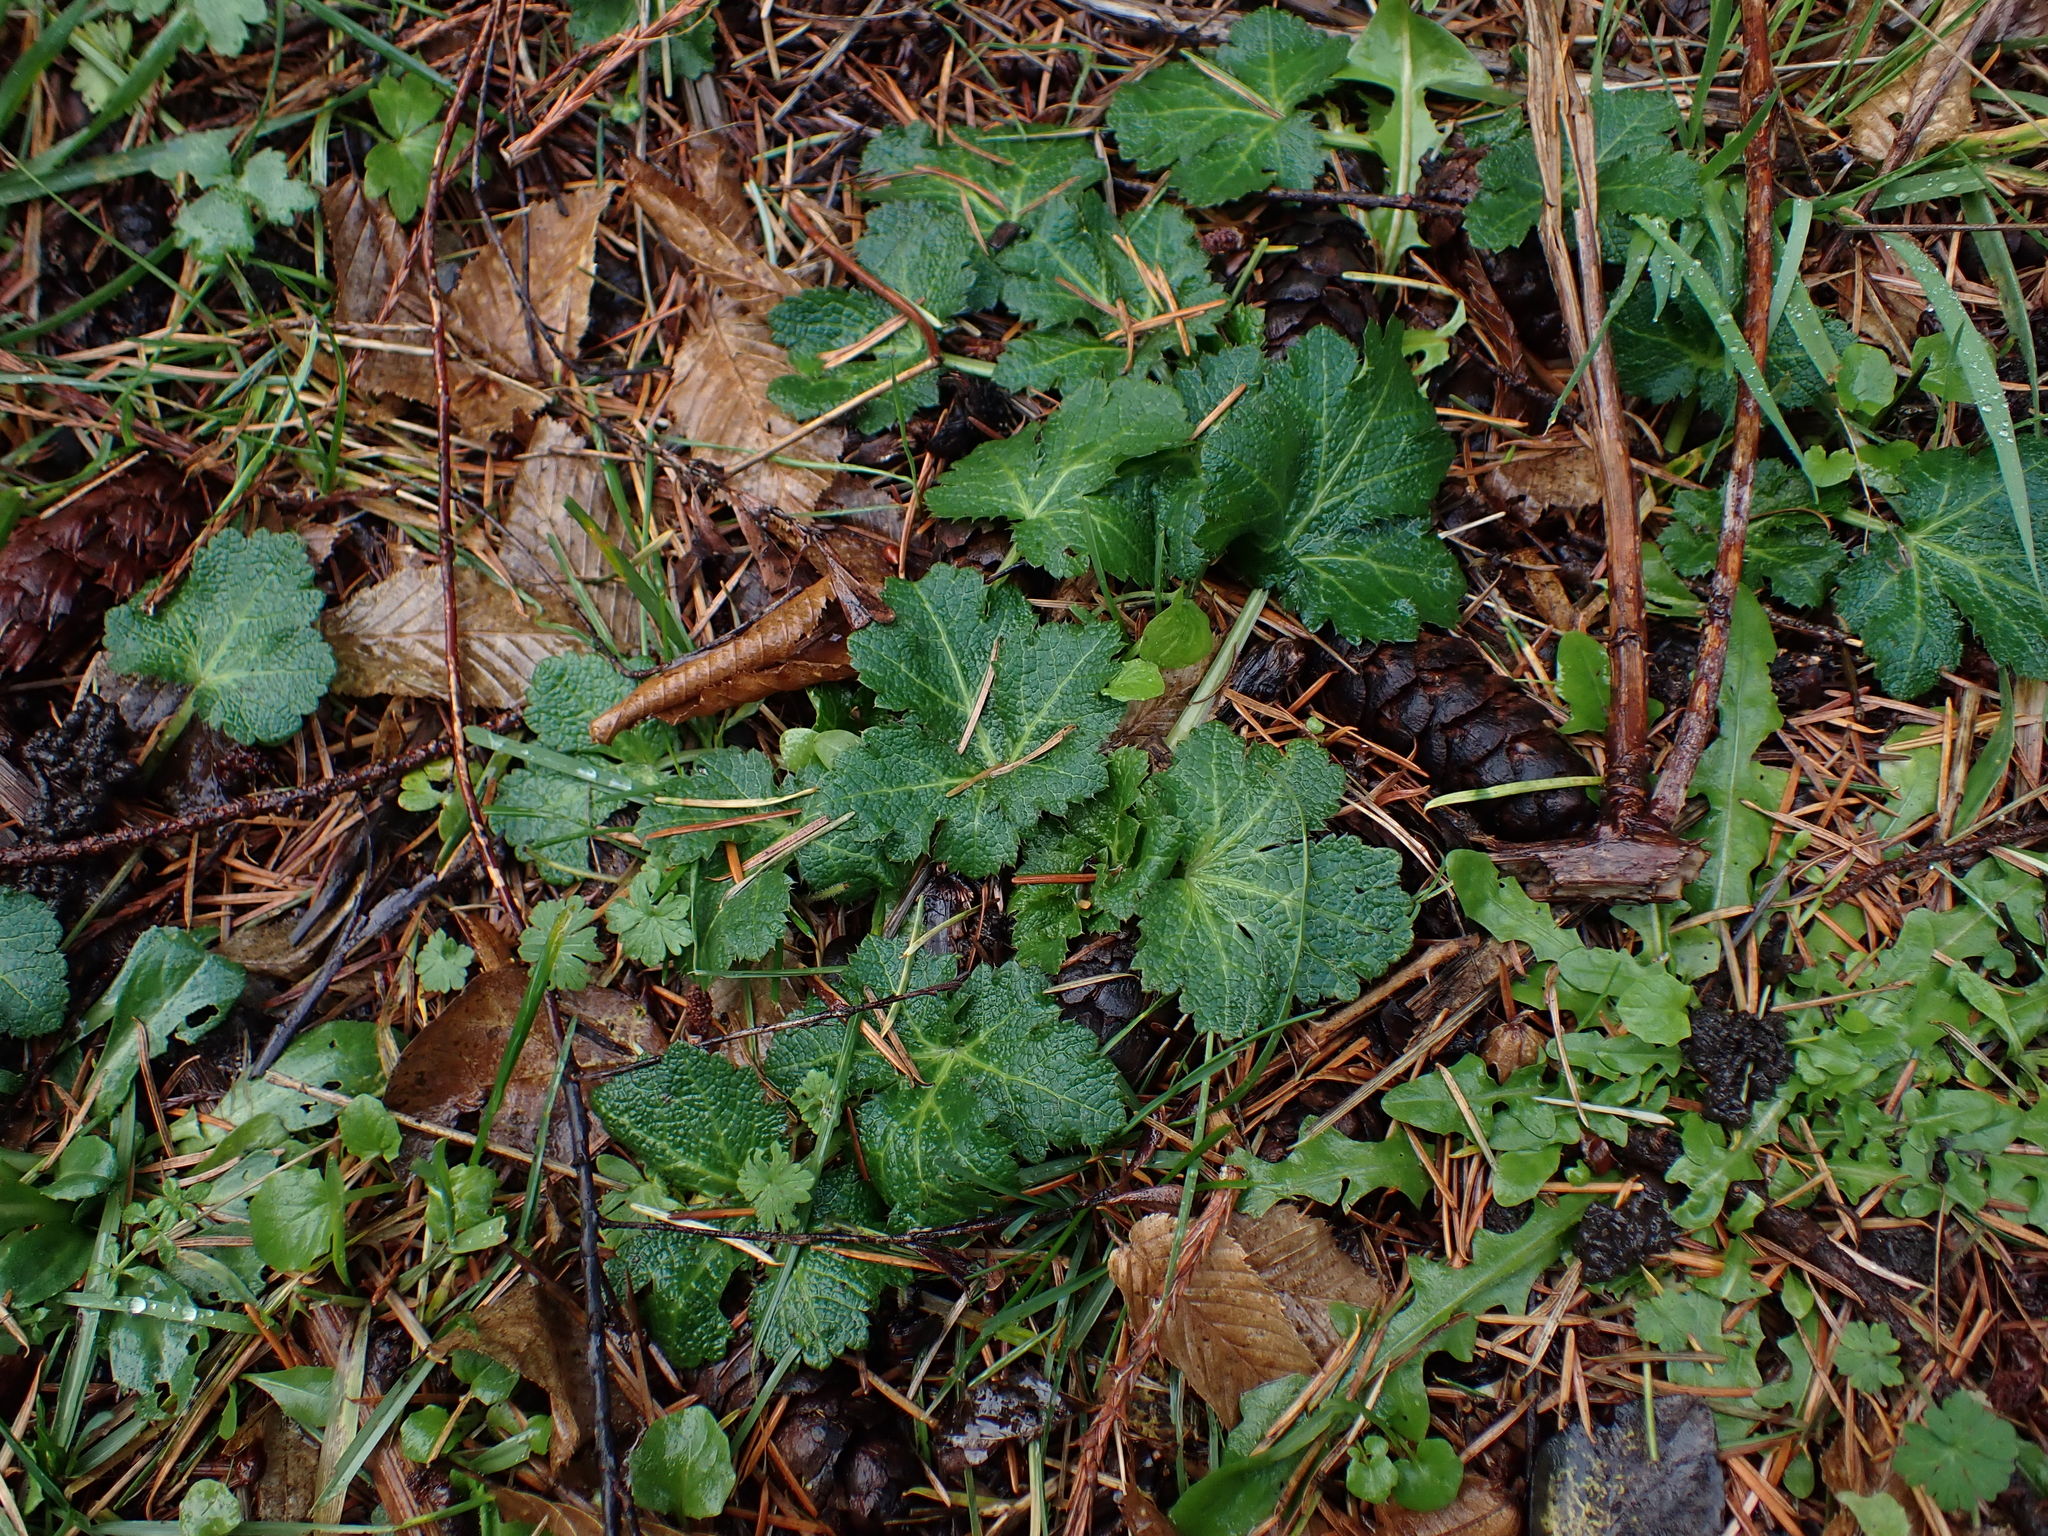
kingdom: Plantae
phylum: Tracheophyta
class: Magnoliopsida
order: Apiales
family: Apiaceae
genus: Sanicula
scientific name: Sanicula crassicaulis
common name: Western snakeroot
